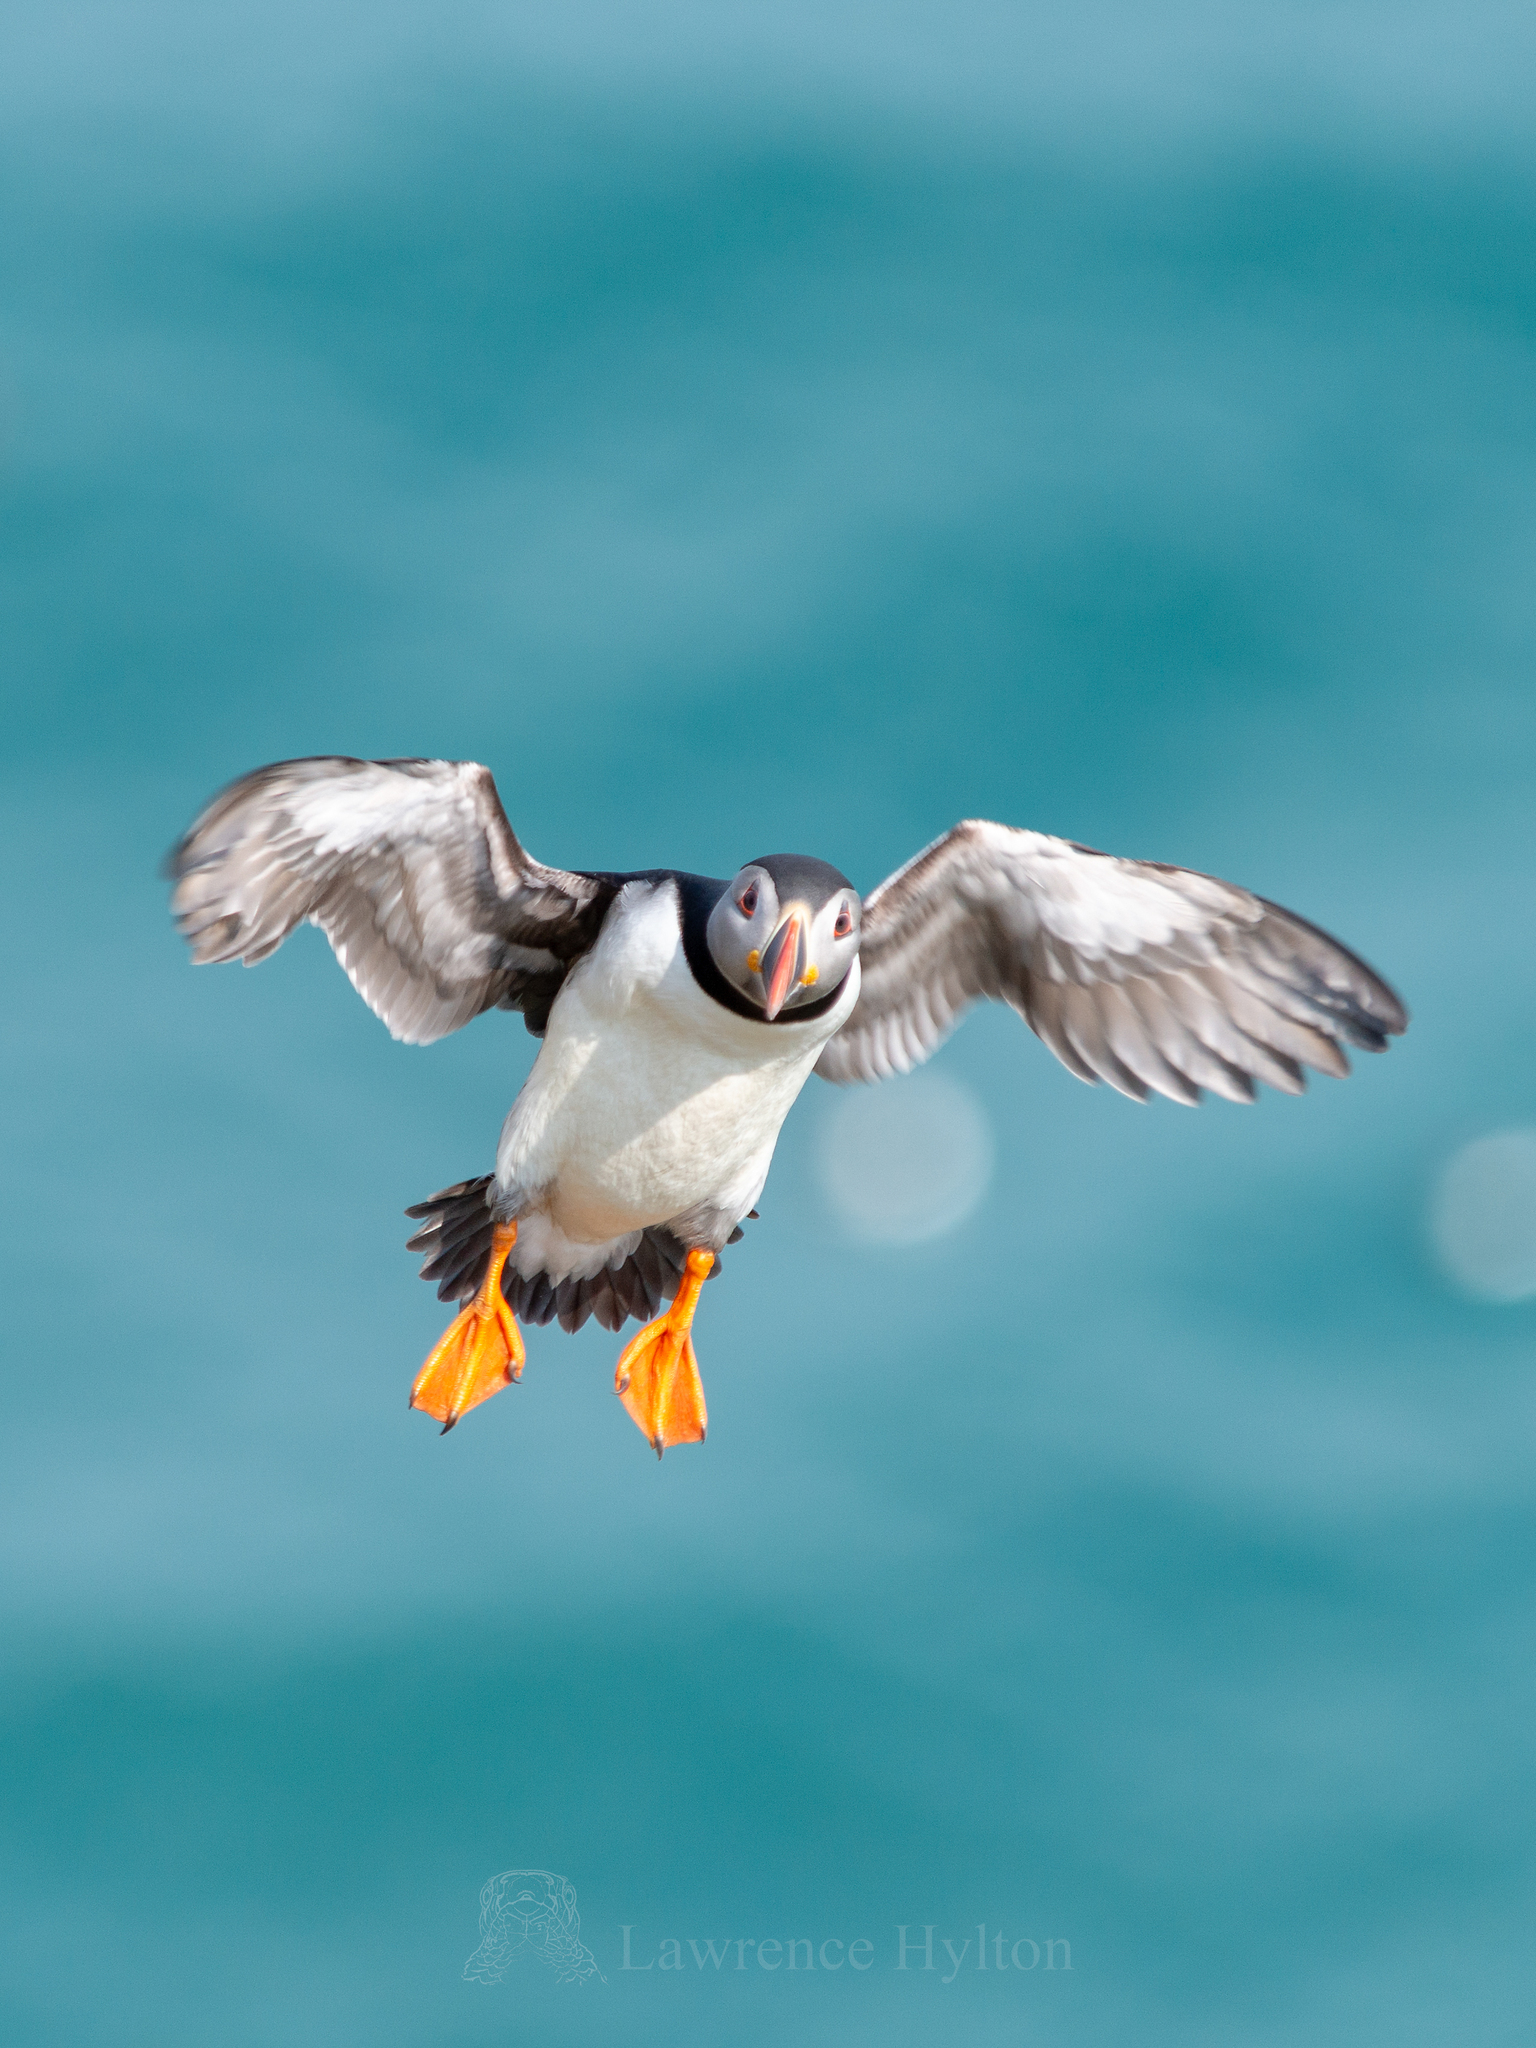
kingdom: Animalia
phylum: Chordata
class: Aves
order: Charadriiformes
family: Alcidae
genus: Fratercula
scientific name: Fratercula arctica
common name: Atlantic puffin
